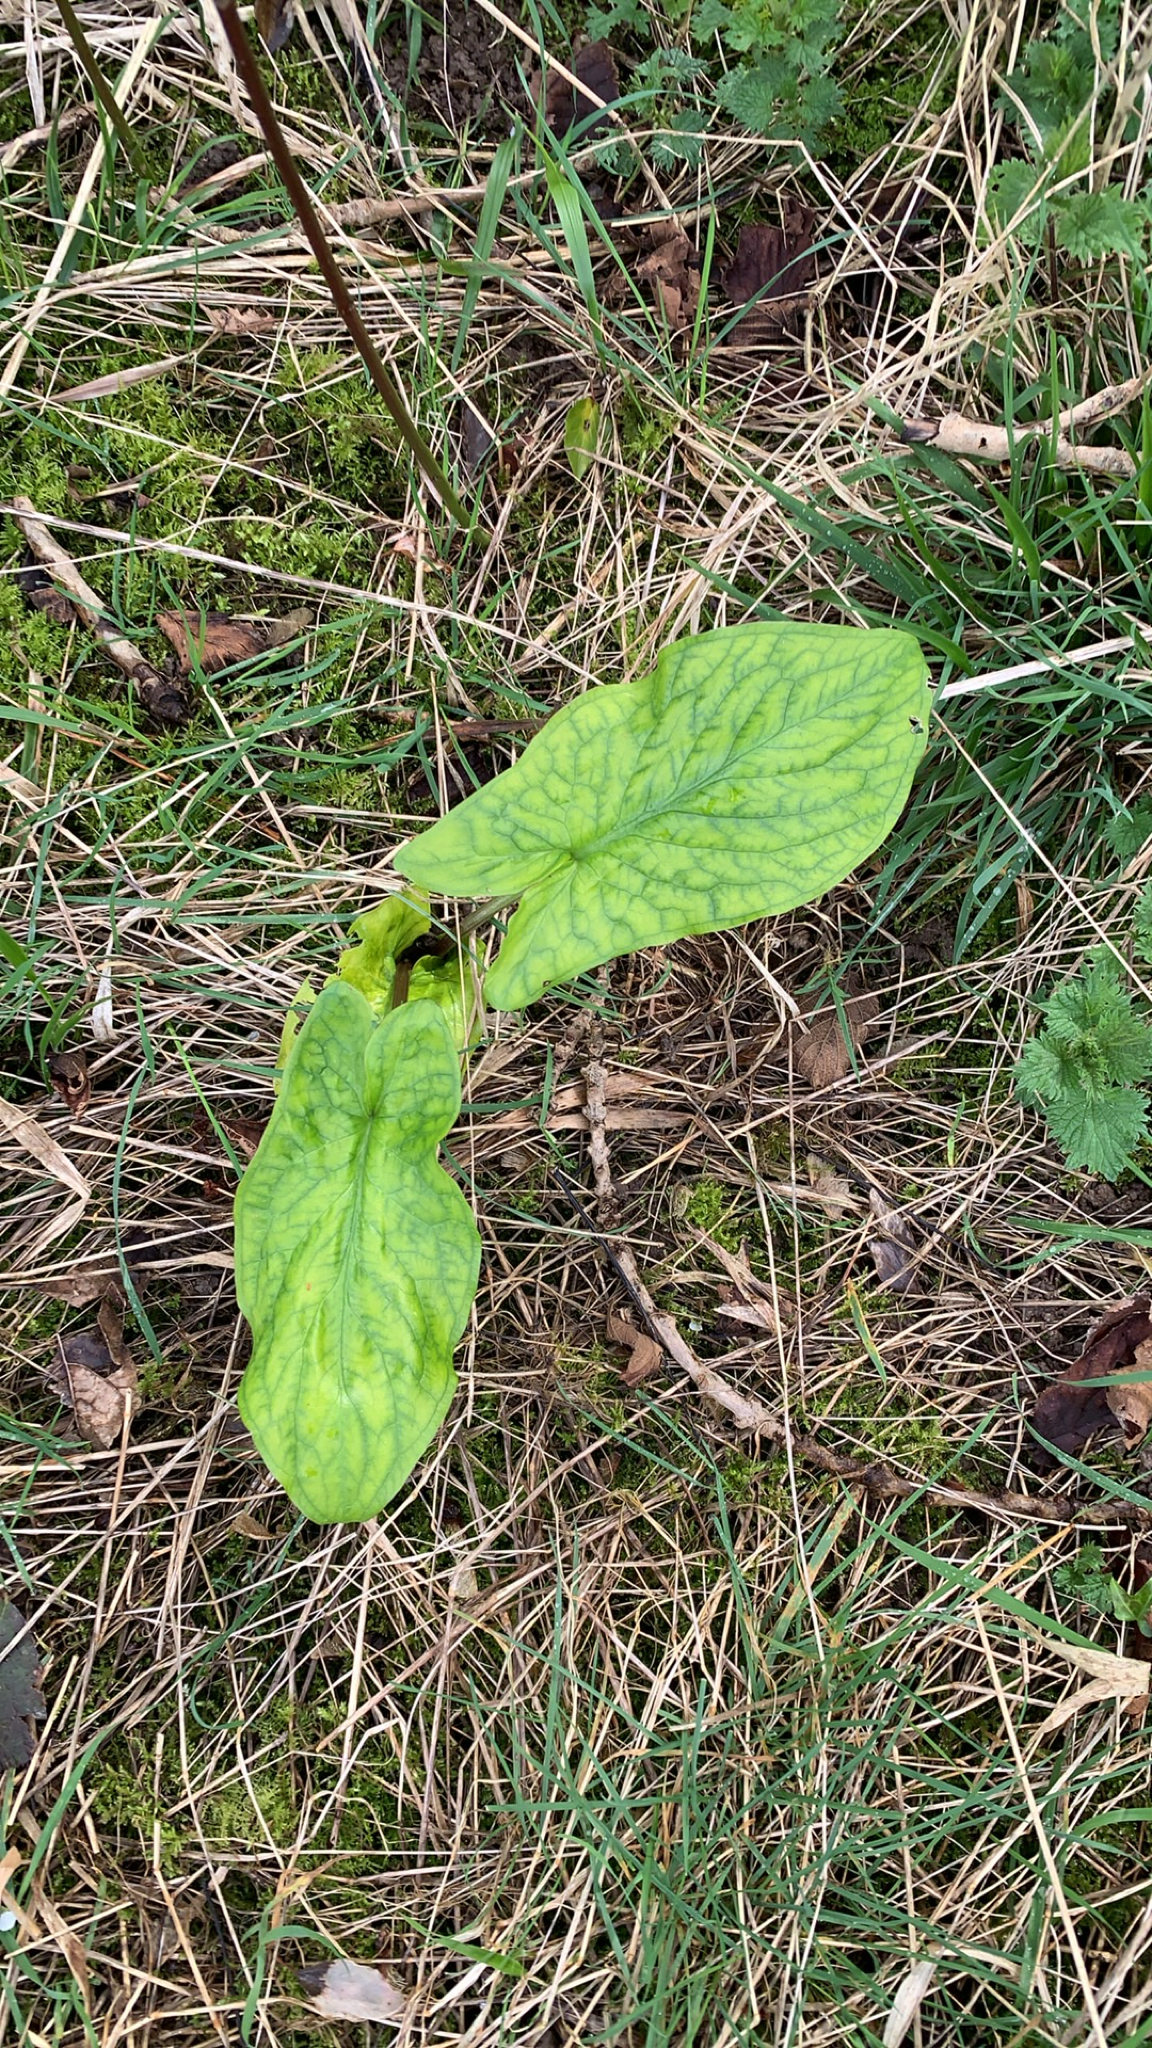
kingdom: Plantae
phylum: Tracheophyta
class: Liliopsida
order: Alismatales
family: Araceae
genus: Arum
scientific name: Arum maculatum
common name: Lords-and-ladies
